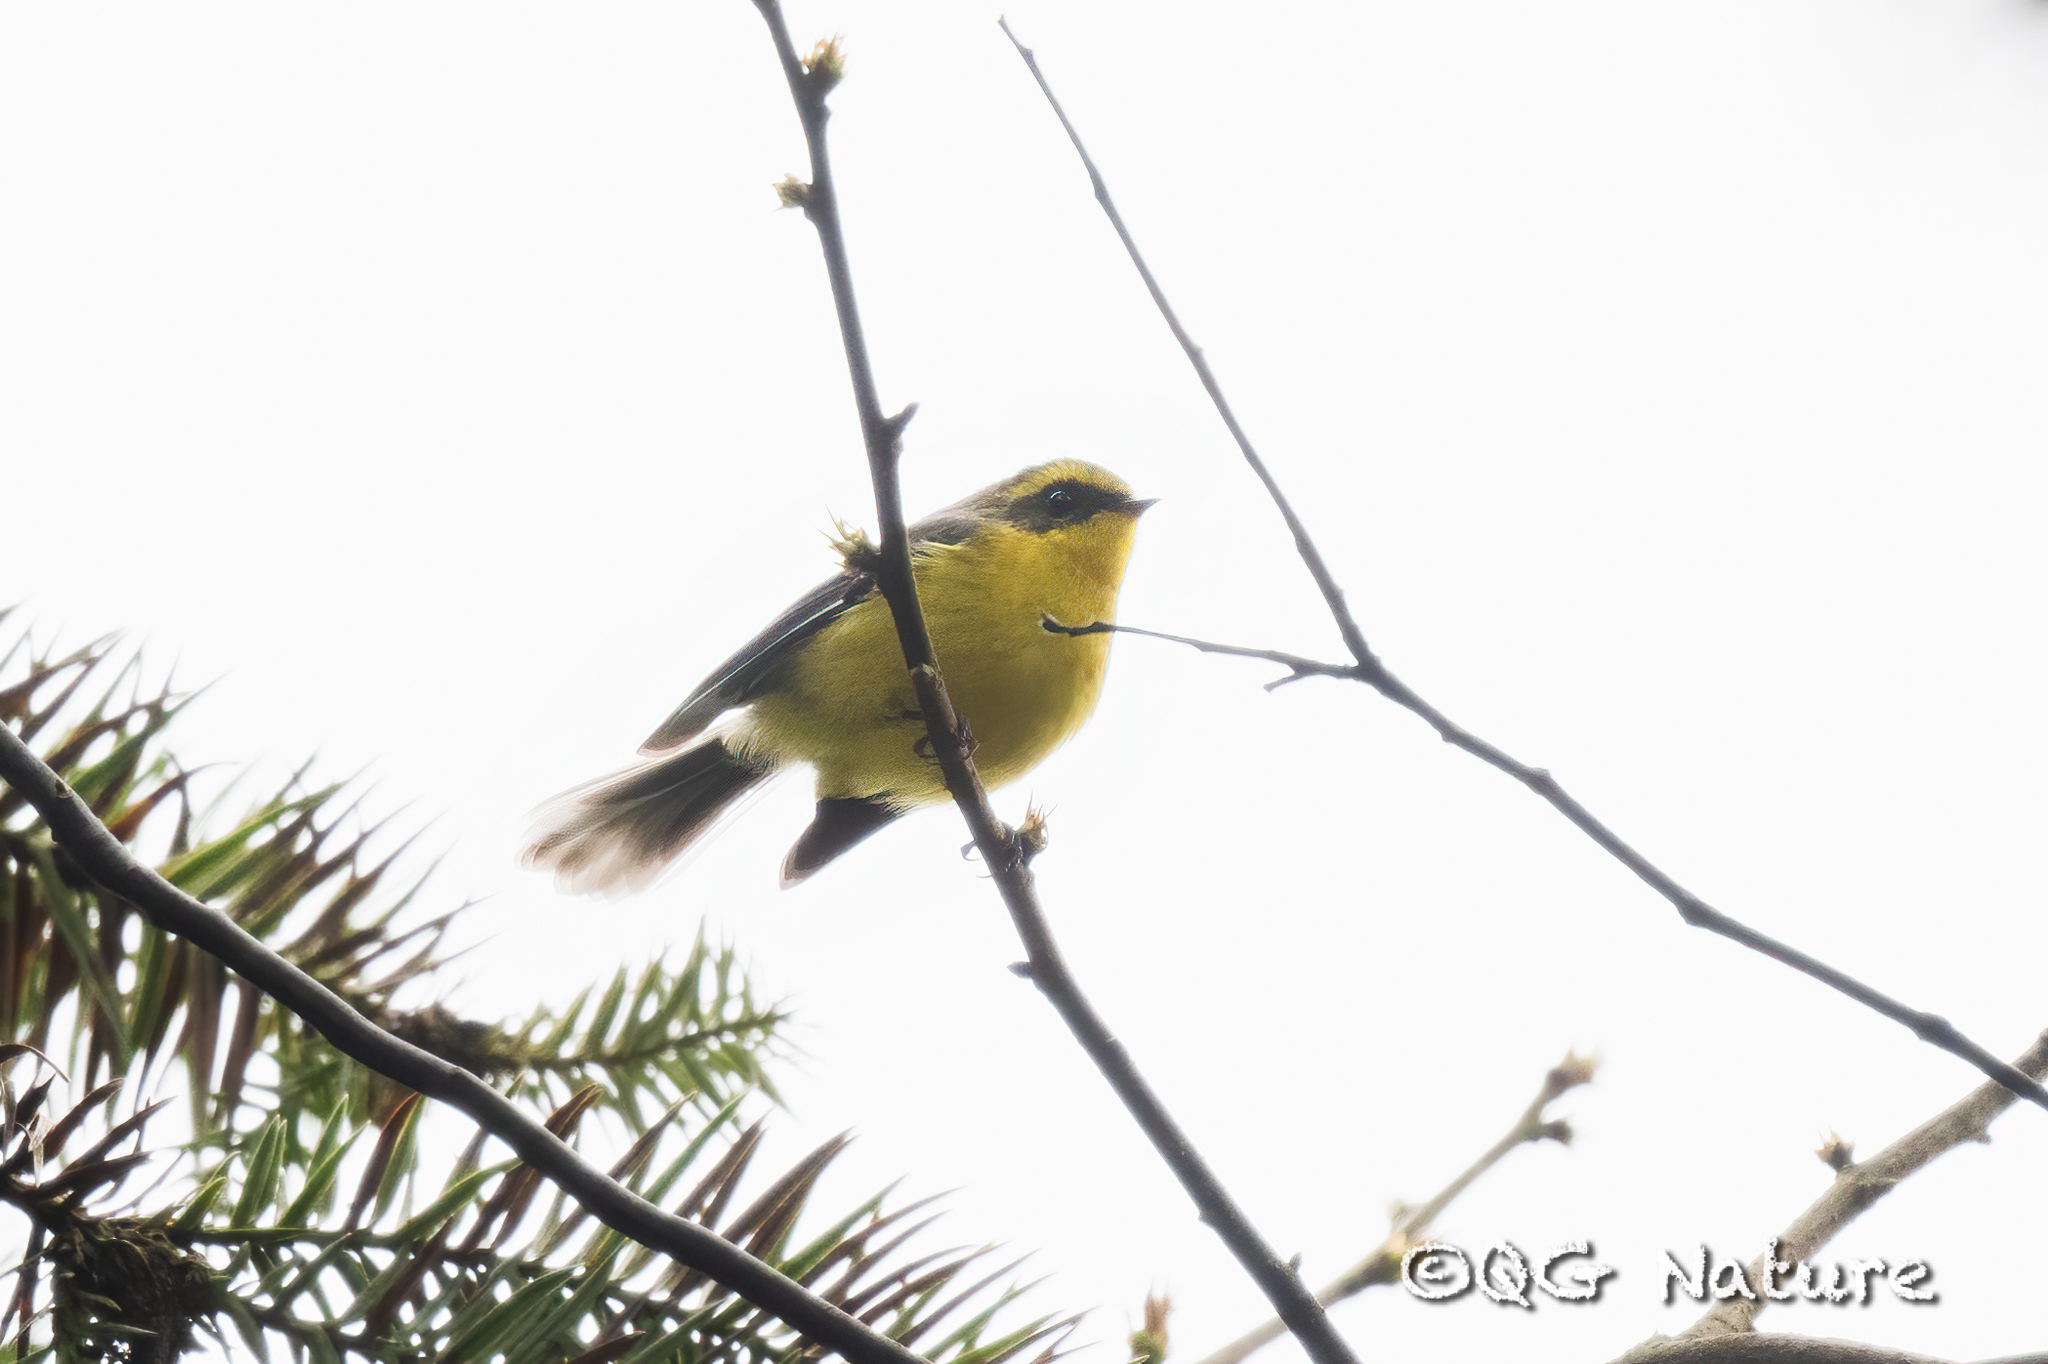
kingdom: Animalia
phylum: Chordata
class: Aves
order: Passeriformes
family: Stenostiridae
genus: Chelidorhynx
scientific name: Chelidorhynx hypoxantha
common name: Yellow-bellied fantail
